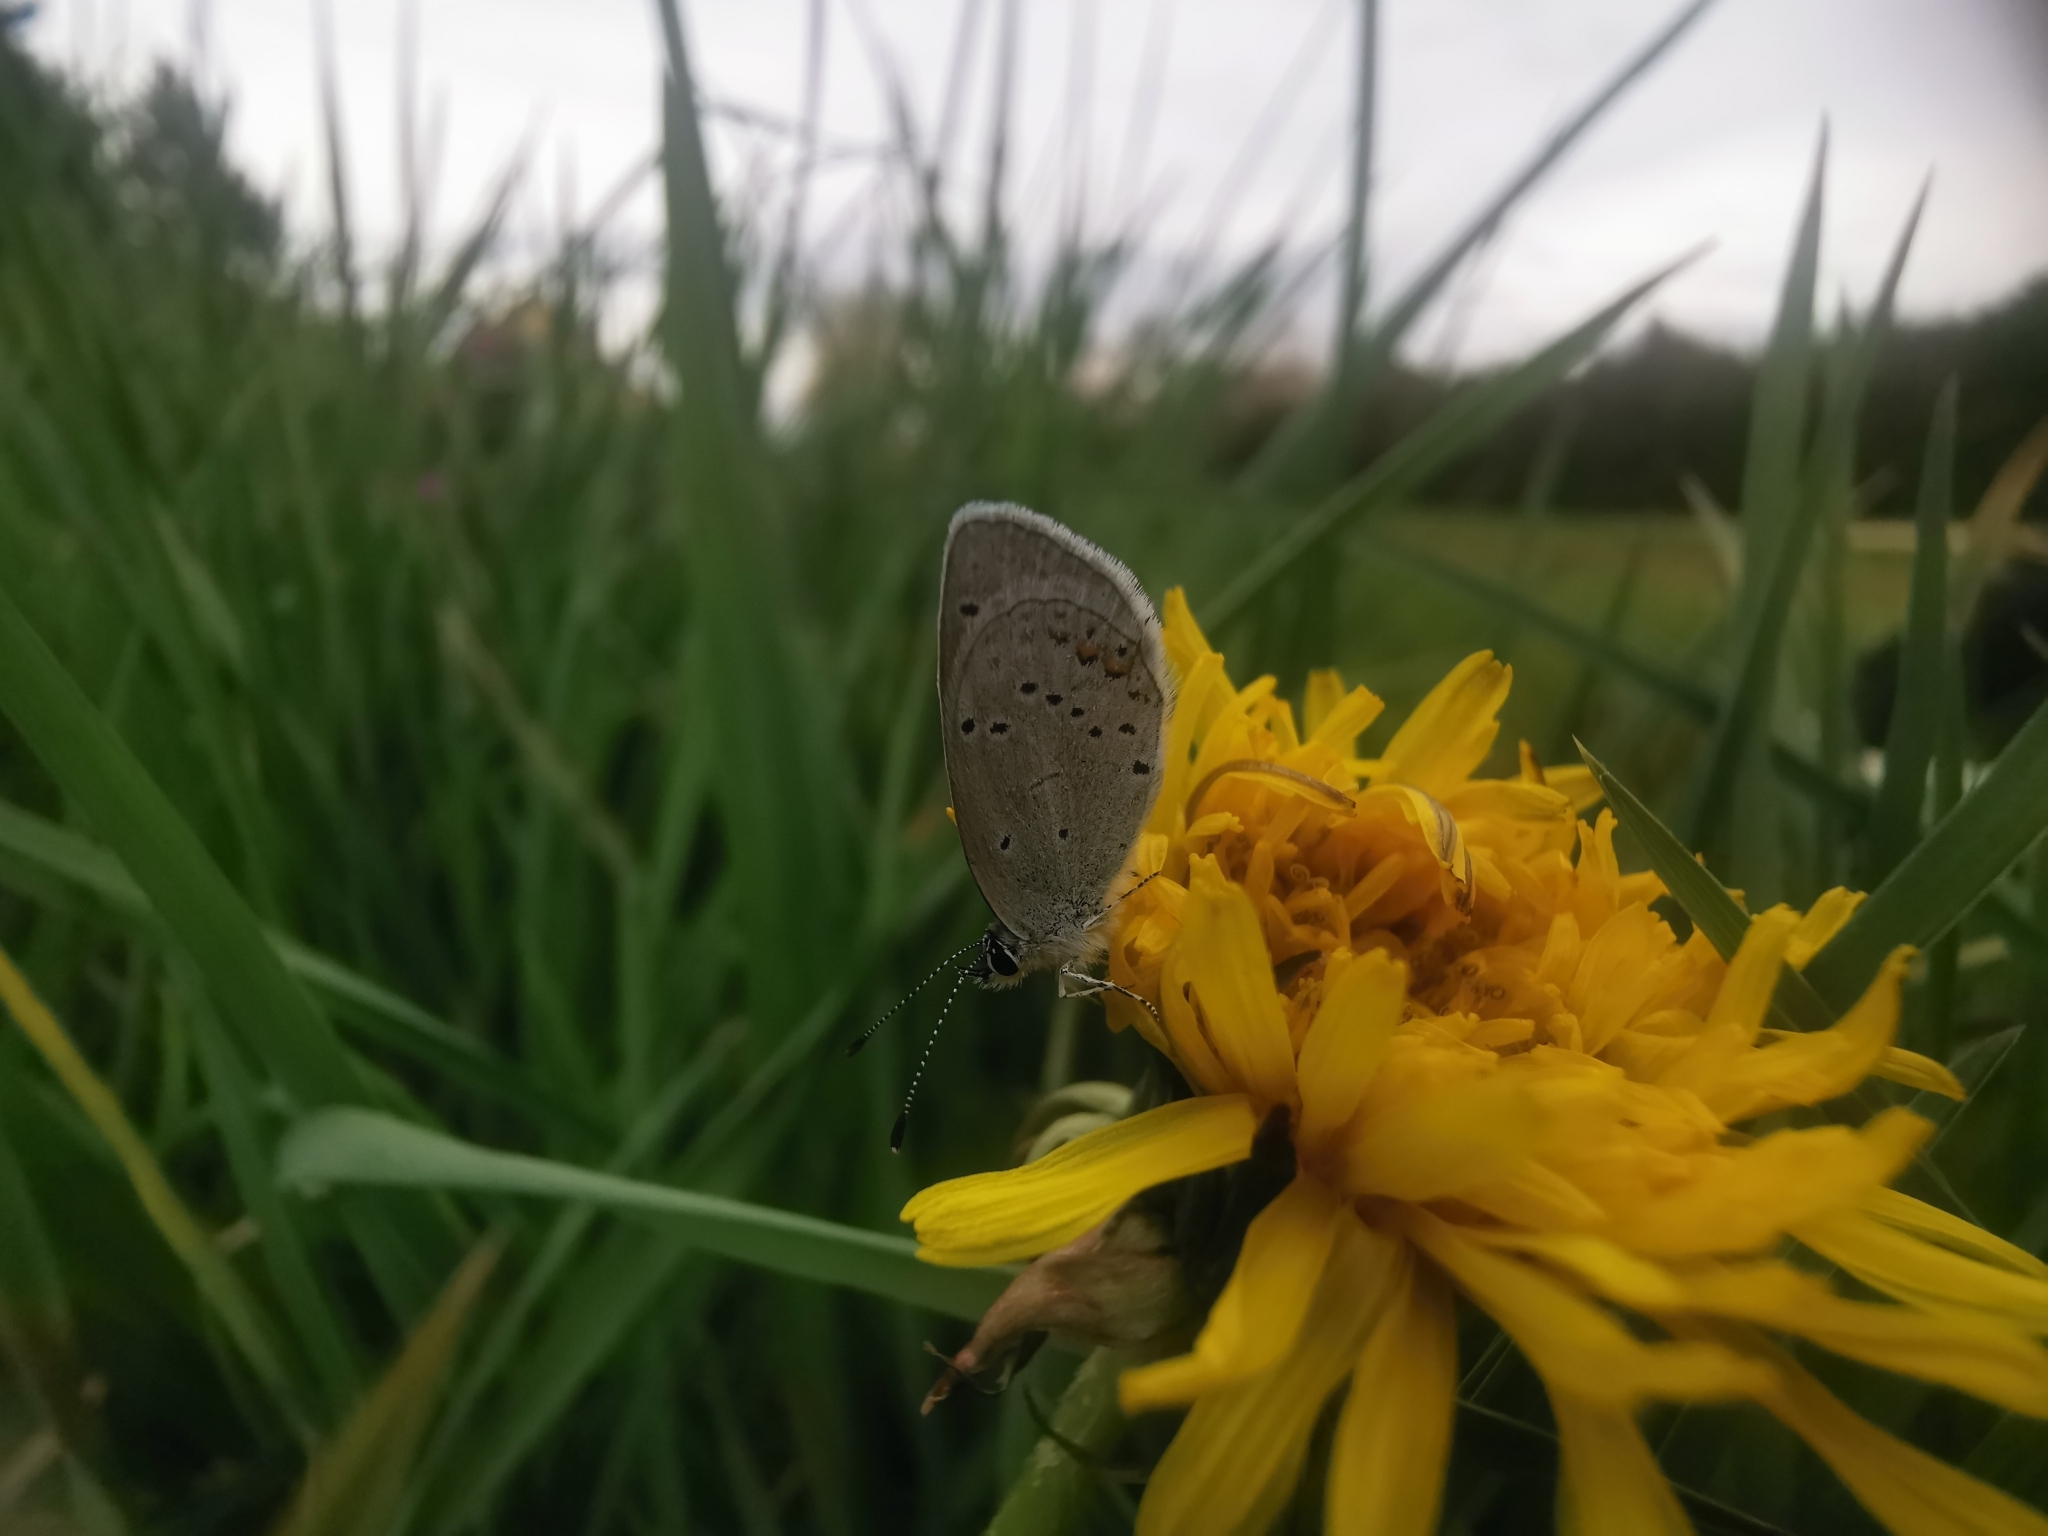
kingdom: Animalia
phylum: Arthropoda
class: Insecta
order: Lepidoptera
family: Lycaenidae
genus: Elkalyce
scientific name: Elkalyce argiades
